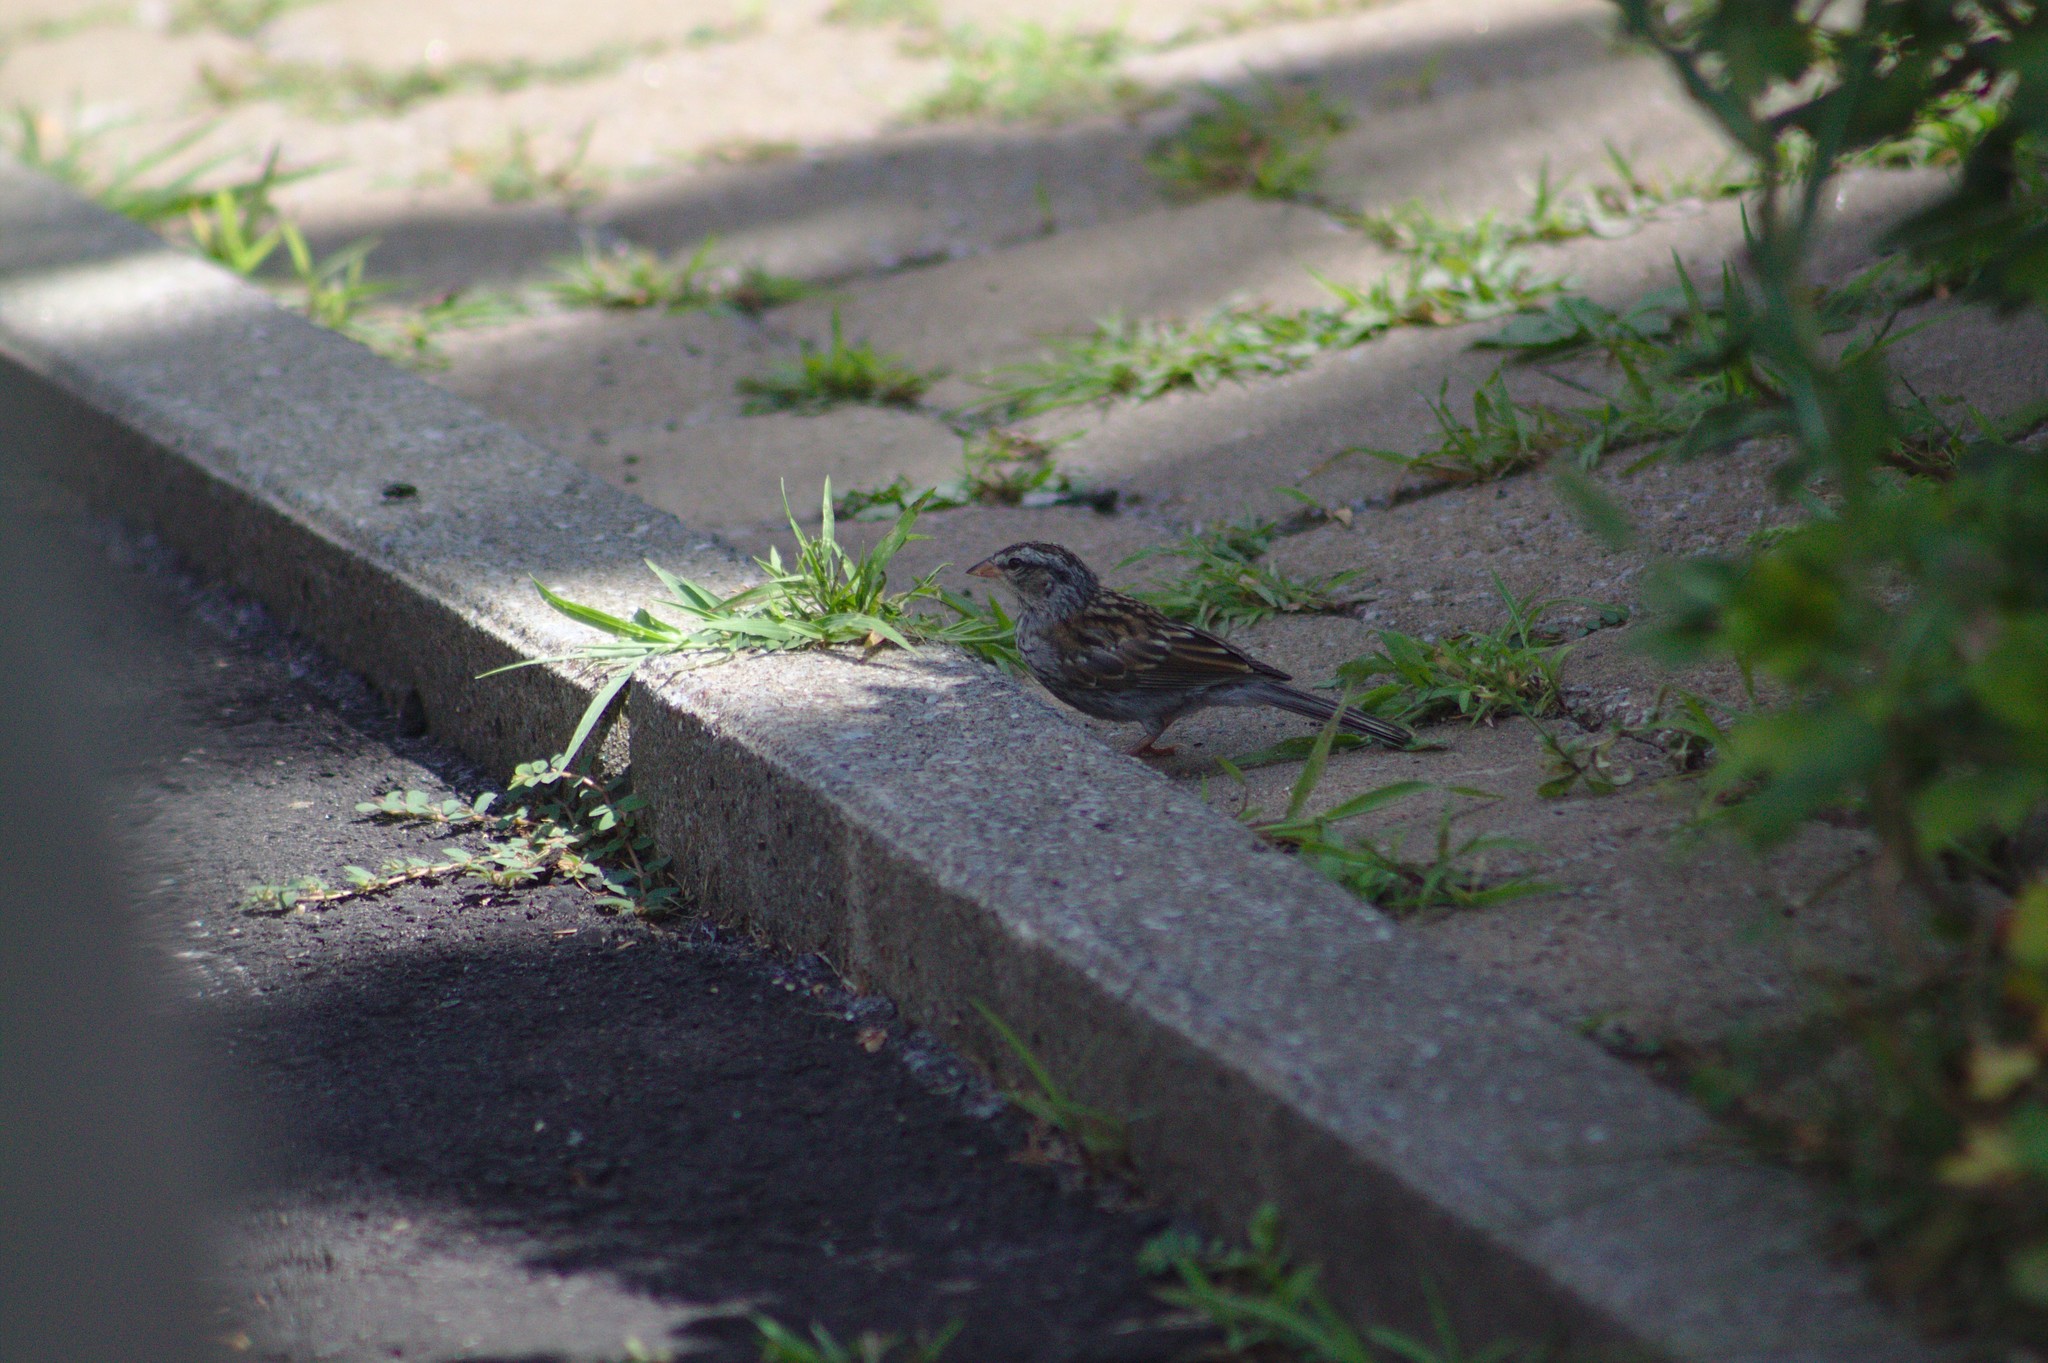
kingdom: Animalia
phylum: Chordata
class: Aves
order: Passeriformes
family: Passerellidae
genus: Spizella
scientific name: Spizella passerina
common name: Chipping sparrow
